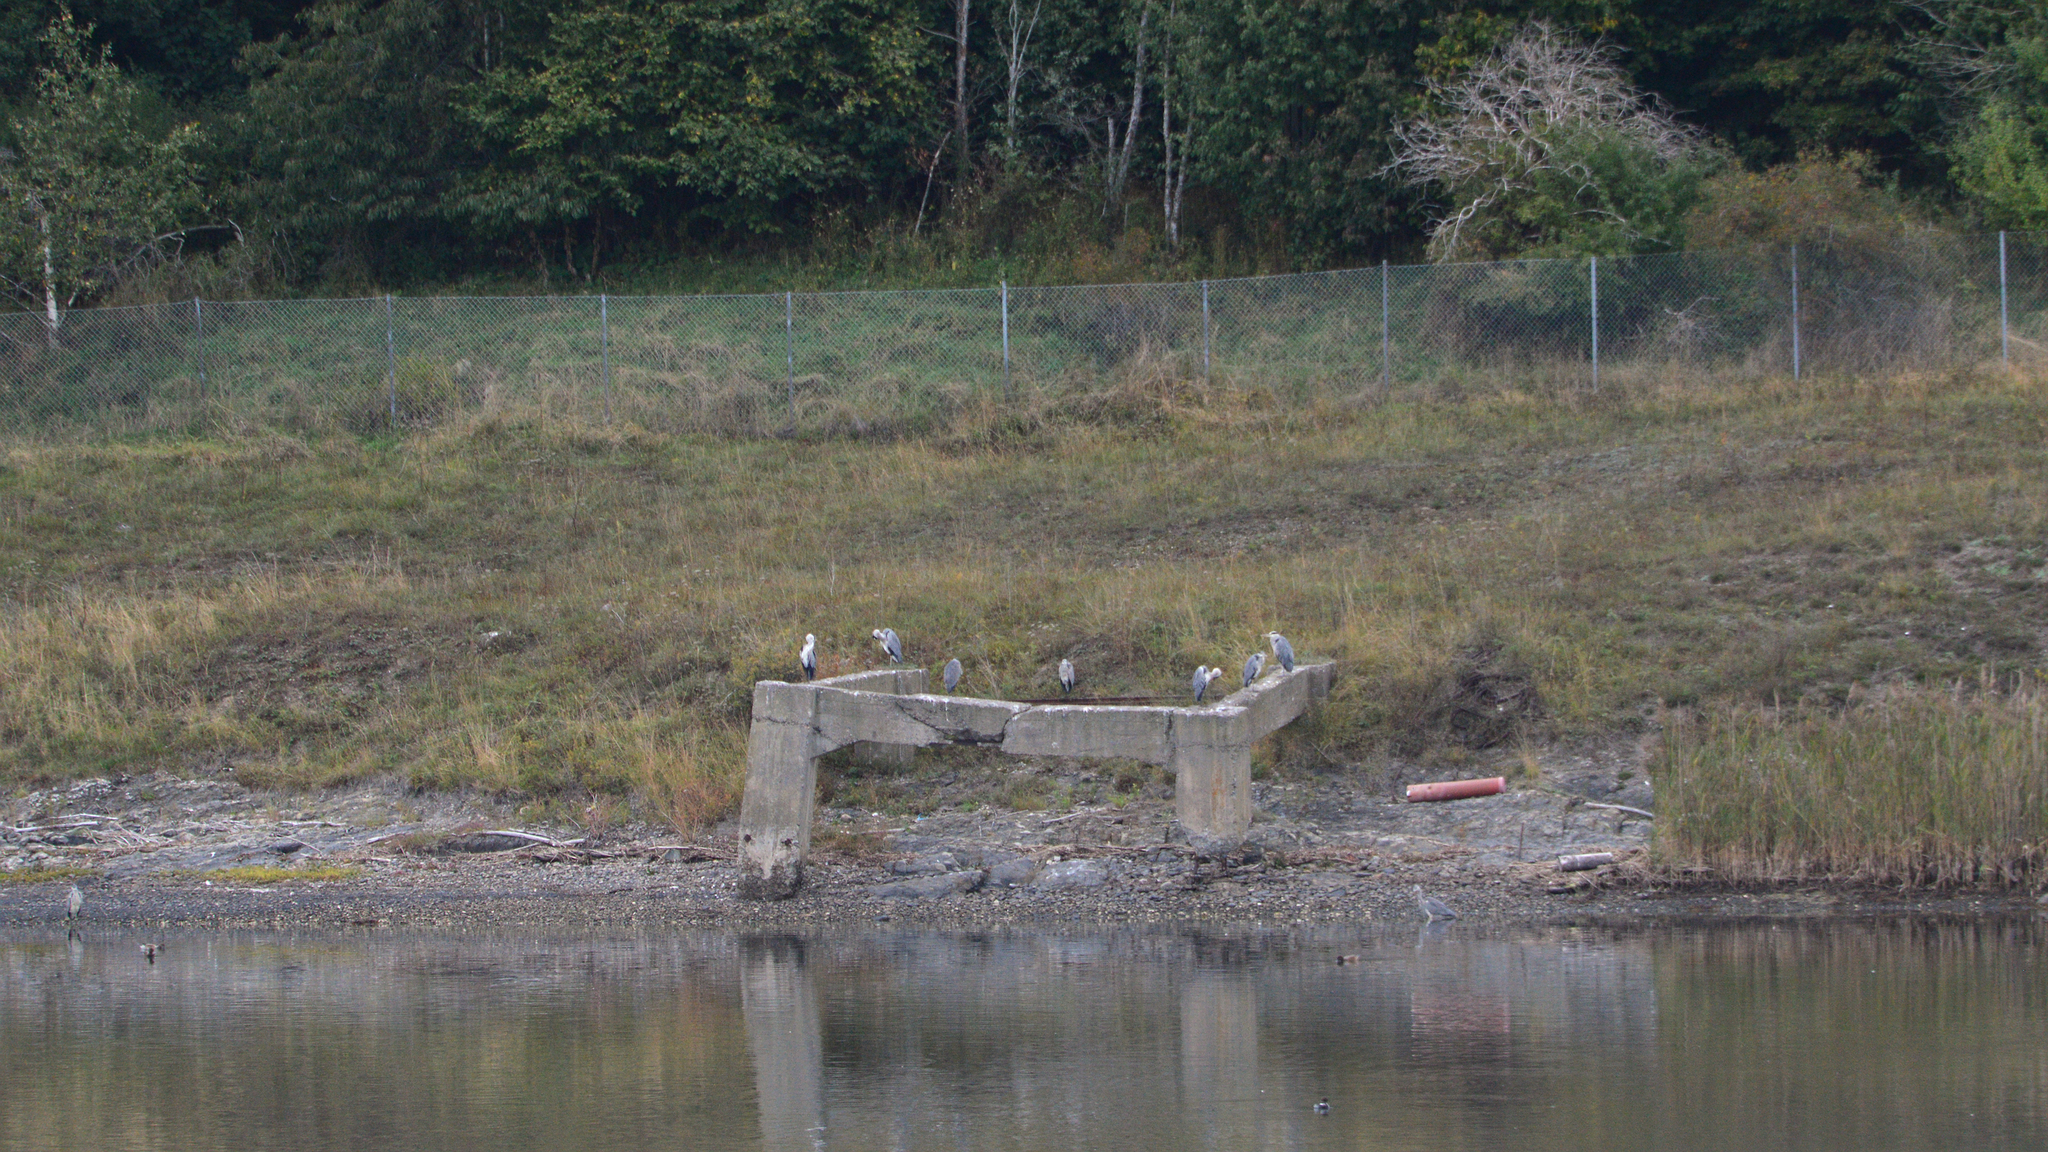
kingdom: Animalia
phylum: Chordata
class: Aves
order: Pelecaniformes
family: Ardeidae
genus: Ardea
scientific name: Ardea cinerea
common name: Grey heron
